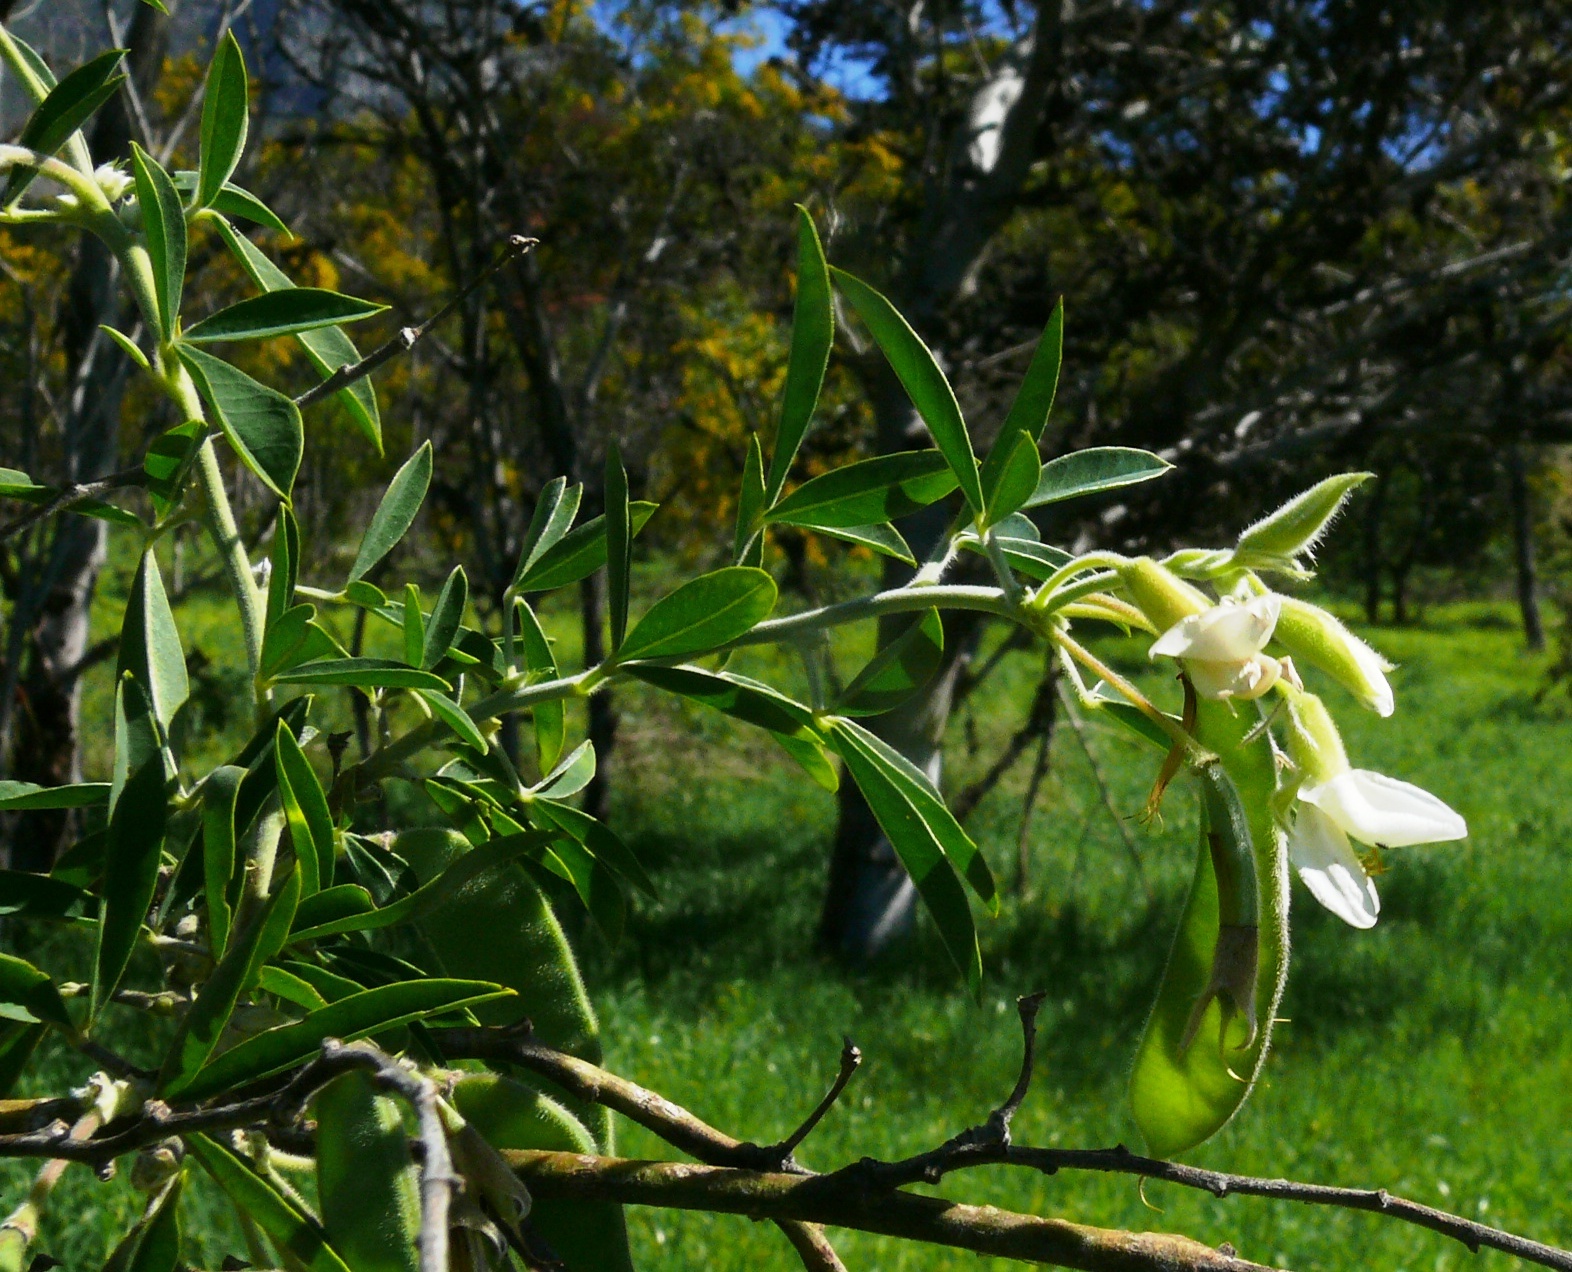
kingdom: Plantae
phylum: Tracheophyta
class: Magnoliopsida
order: Fabales
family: Fabaceae
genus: Chamaecytisus
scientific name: Chamaecytisus prolifer
